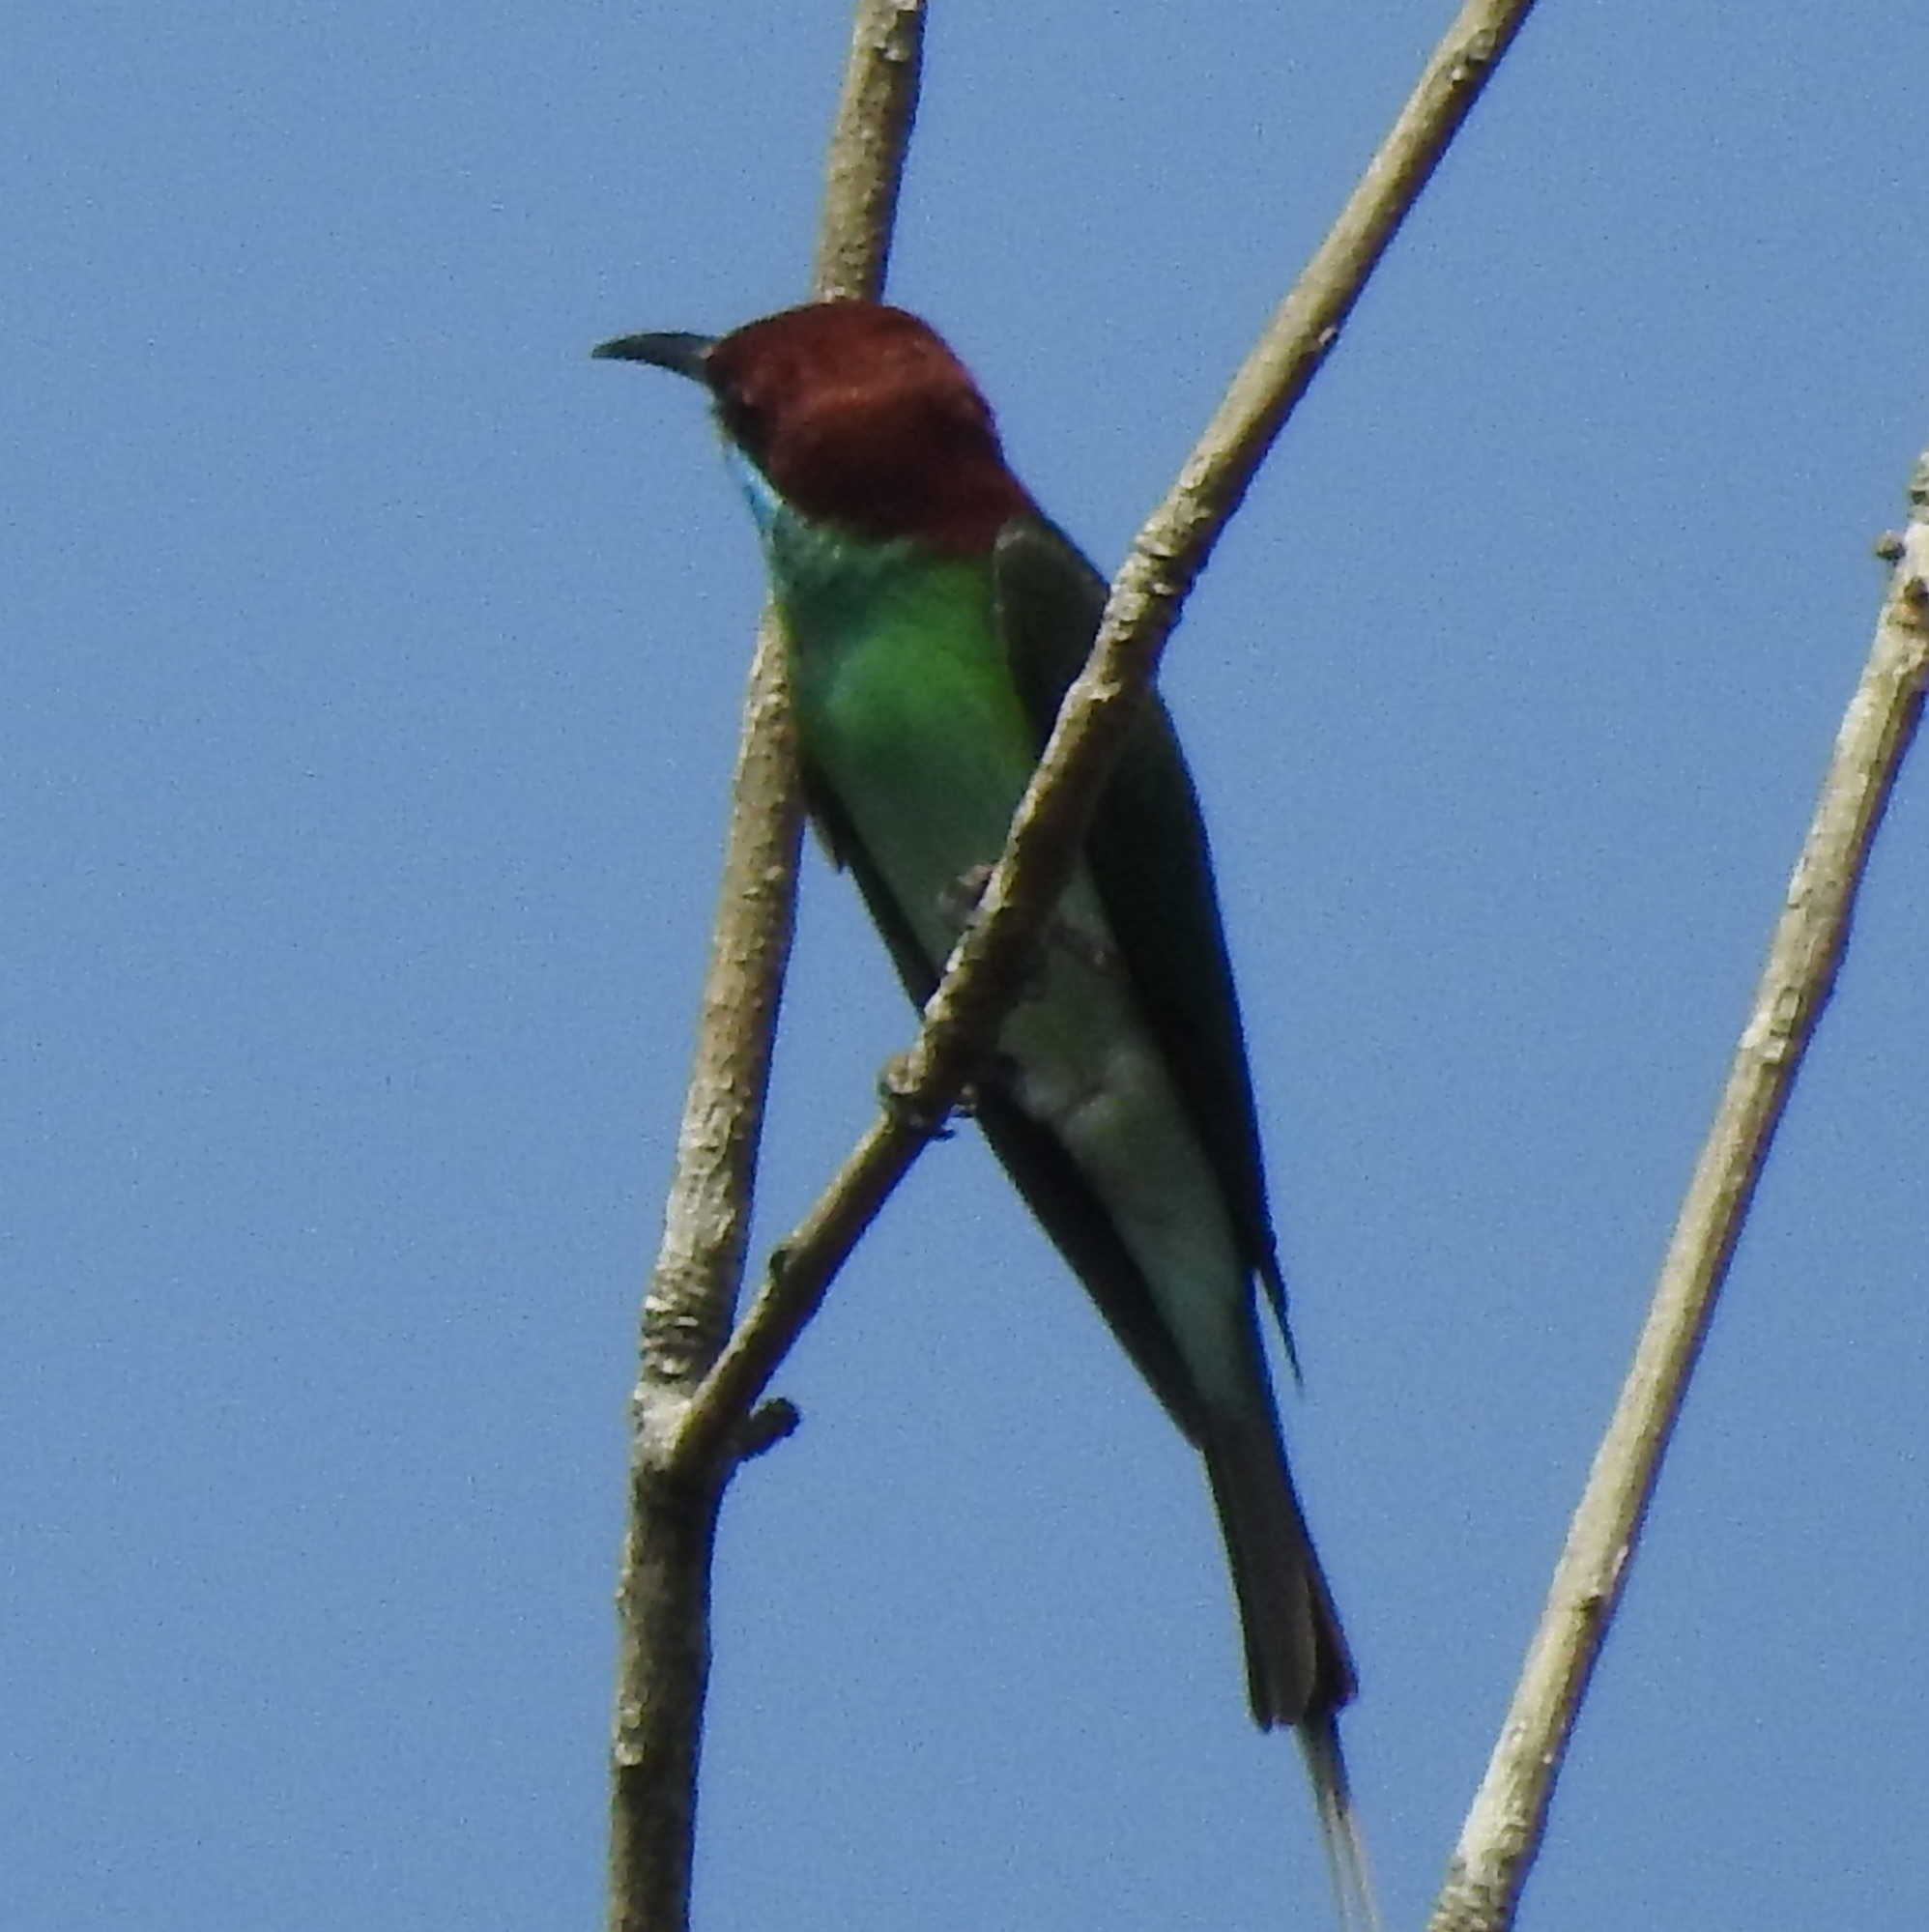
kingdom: Animalia
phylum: Chordata
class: Aves
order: Coraciiformes
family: Meropidae
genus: Merops
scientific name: Merops viridis
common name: Blue-throated bee-eater
